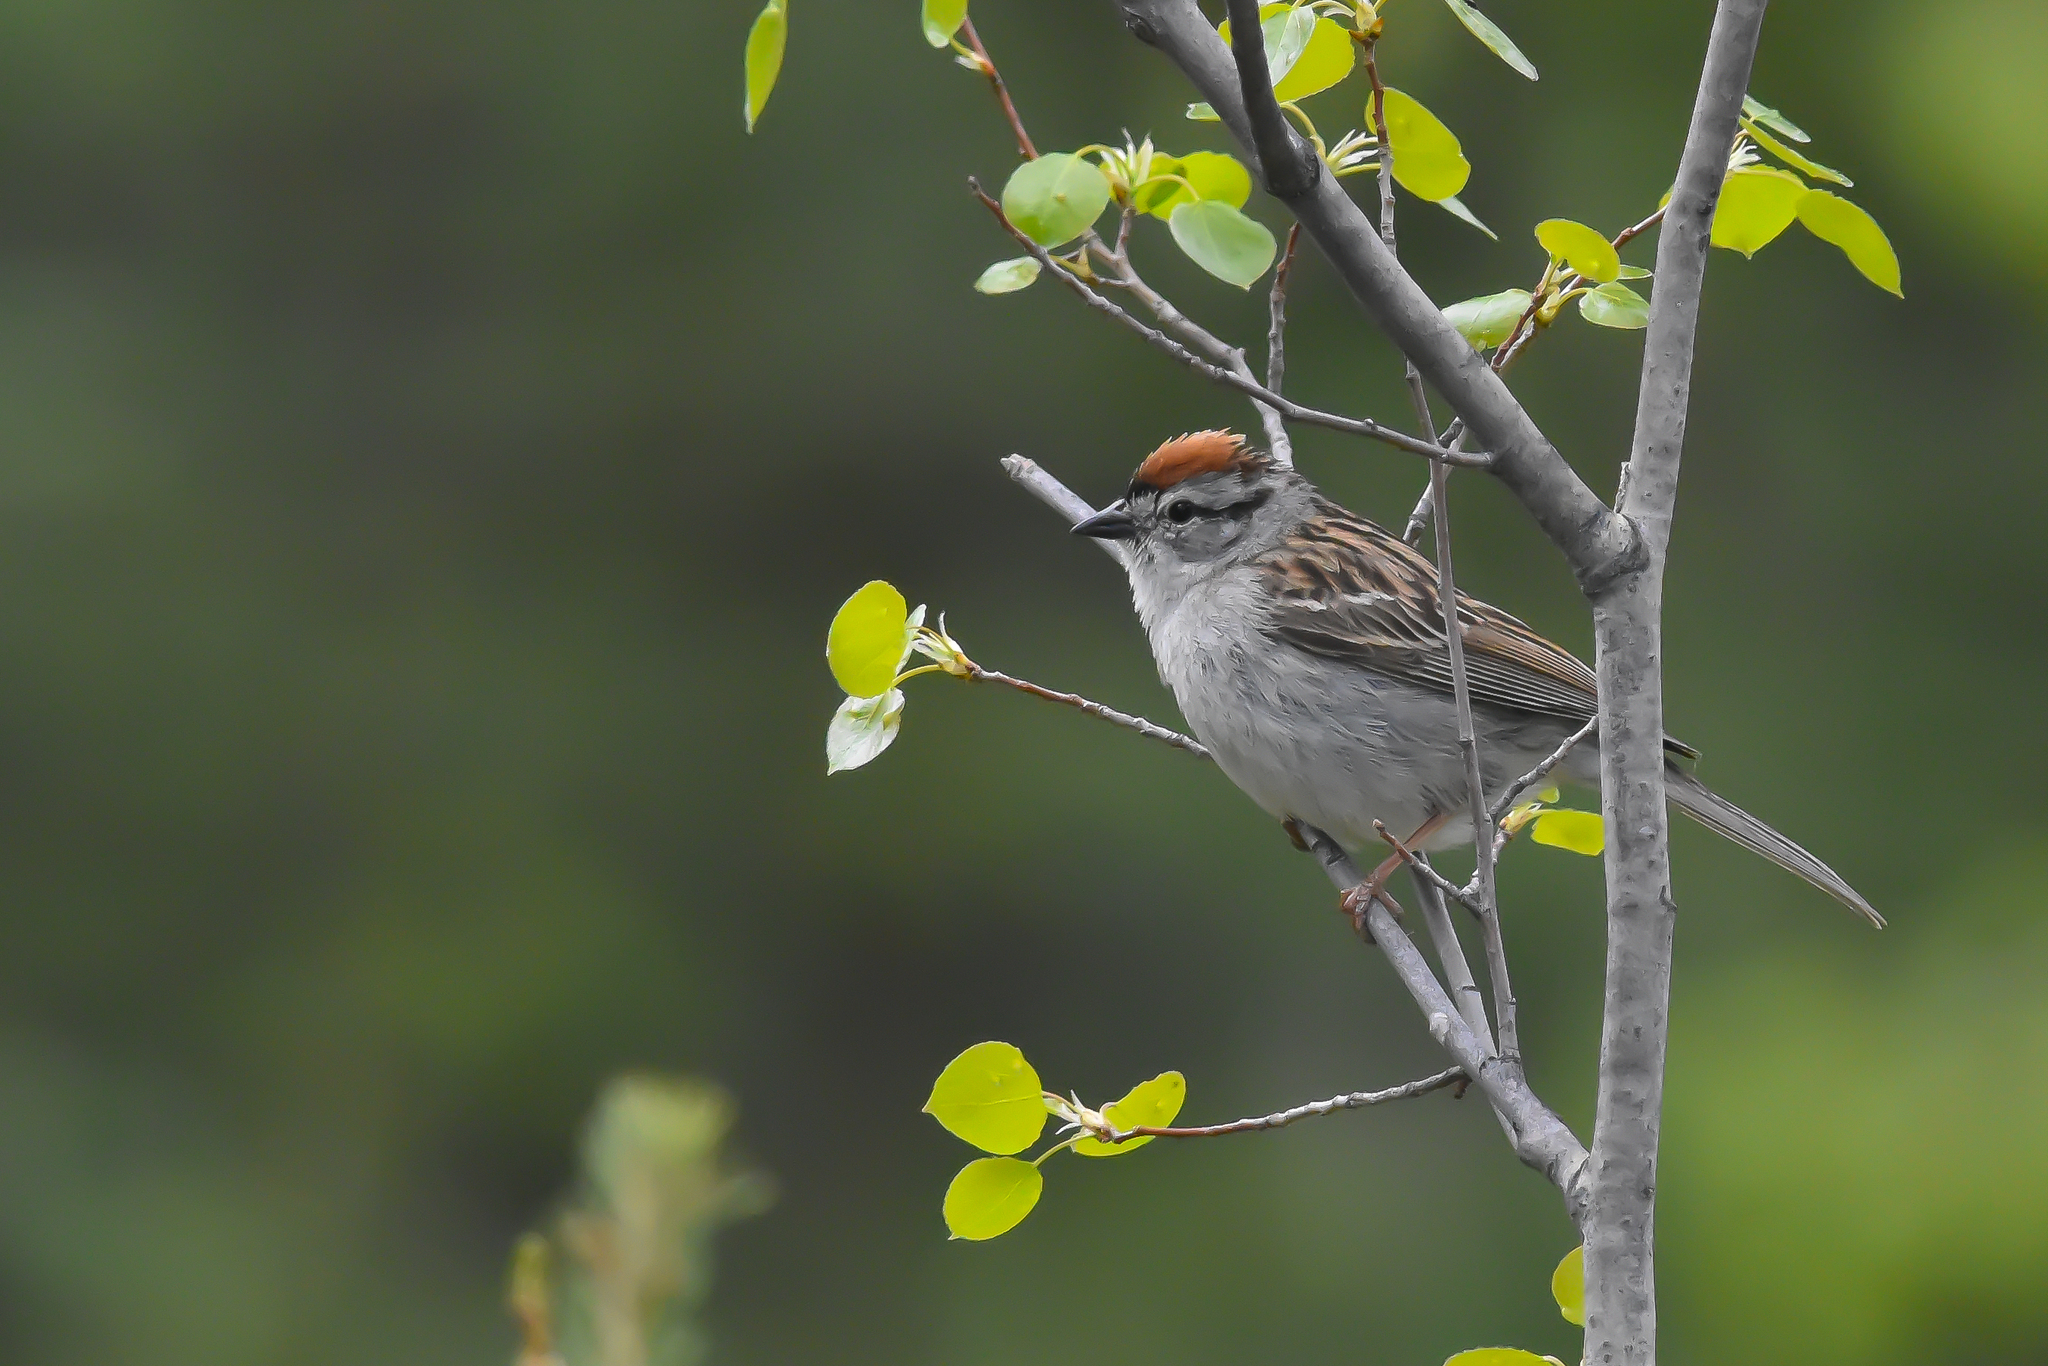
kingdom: Animalia
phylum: Chordata
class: Aves
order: Passeriformes
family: Passerellidae
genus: Spizella
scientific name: Spizella passerina
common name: Chipping sparrow
